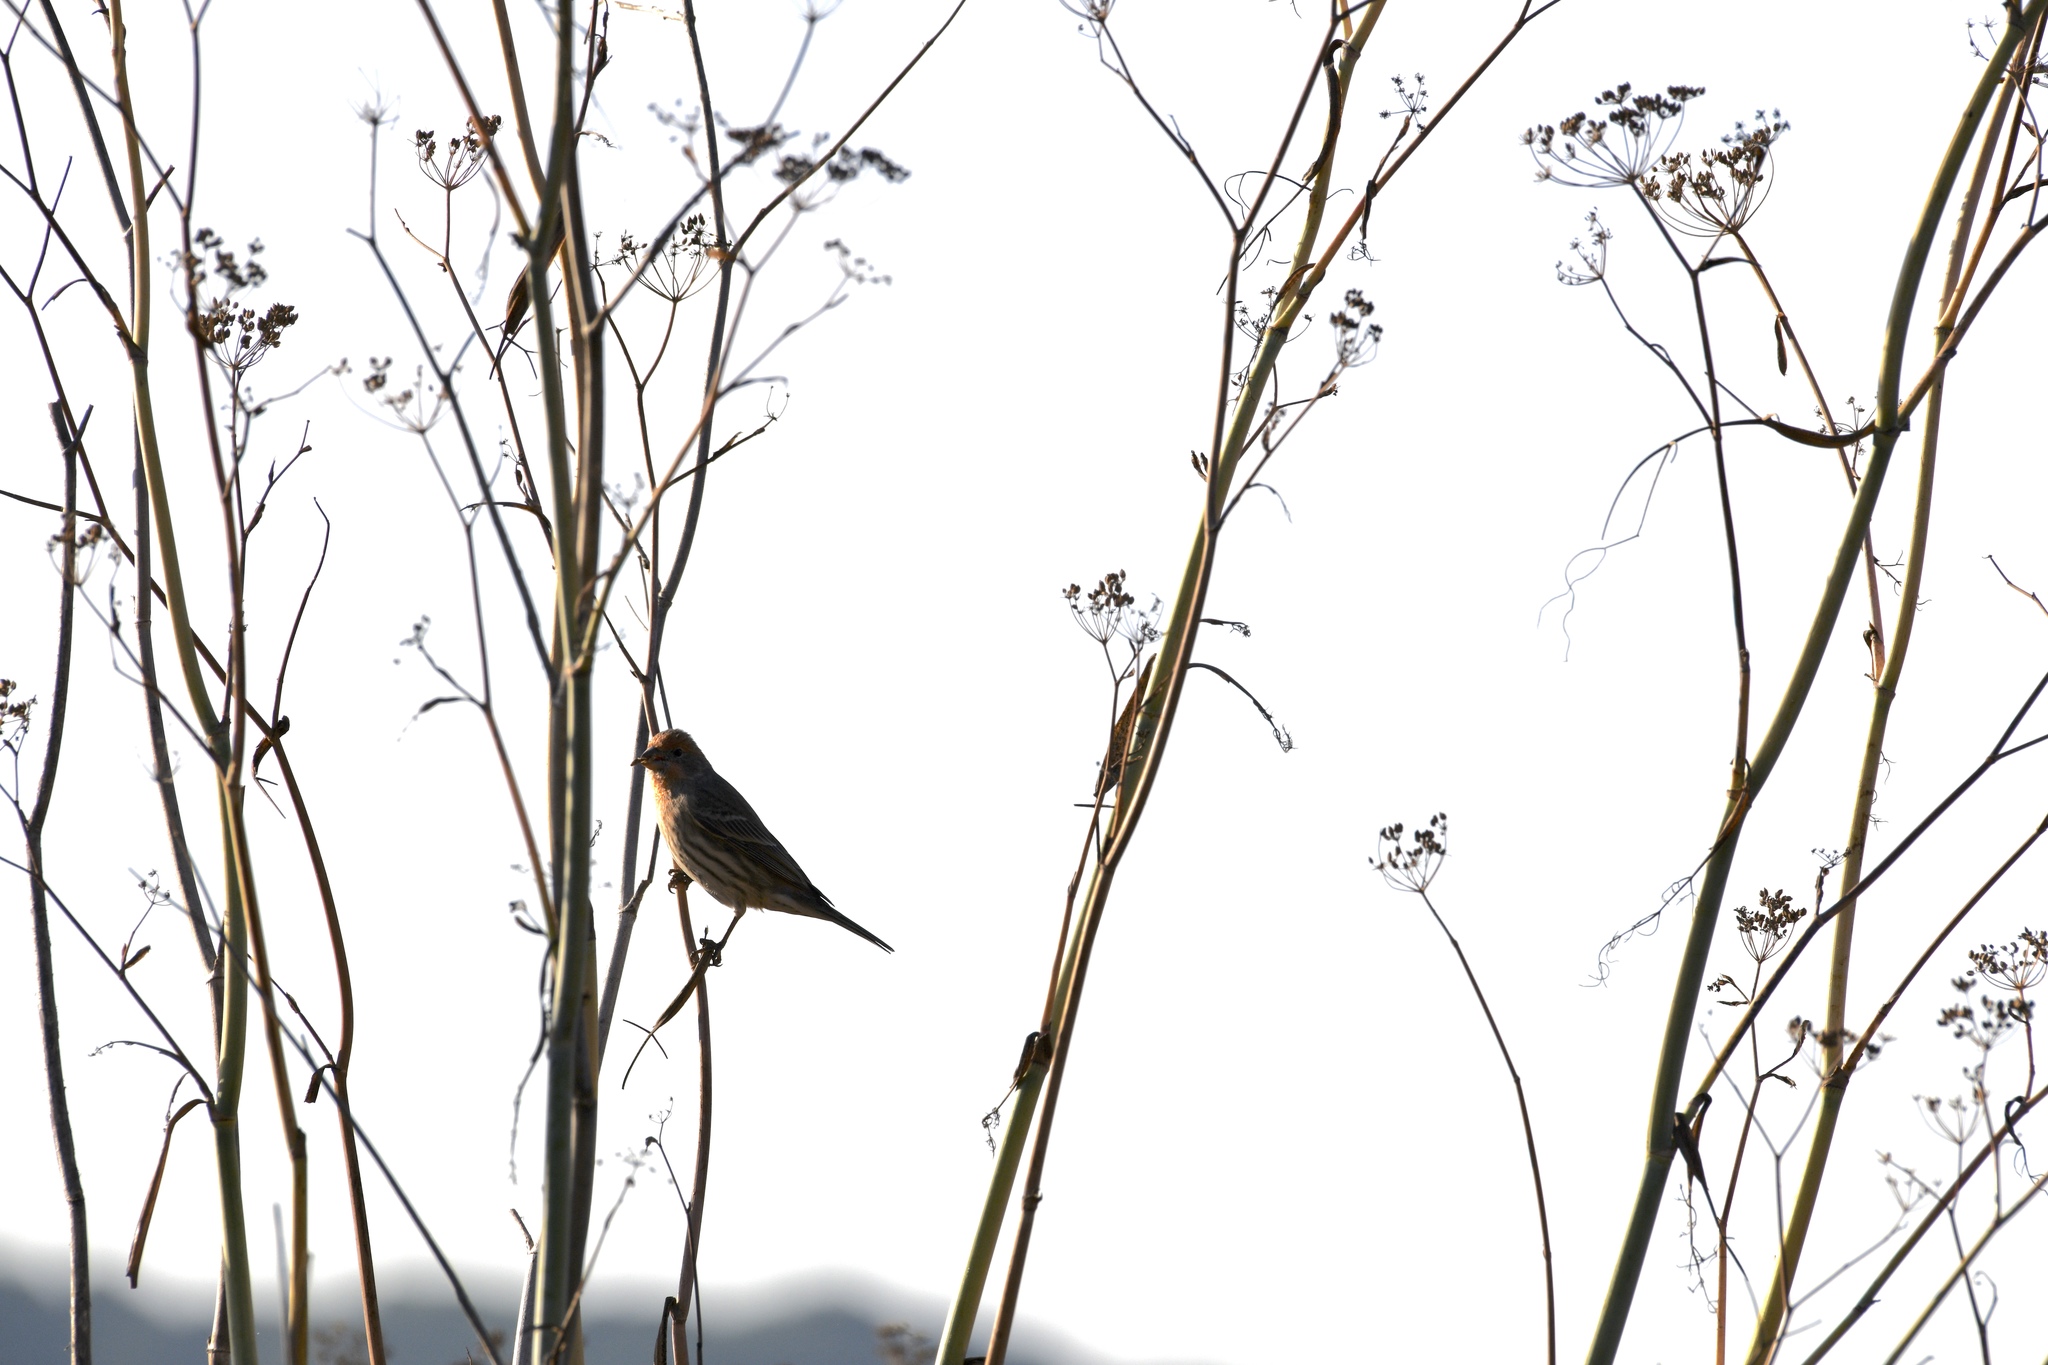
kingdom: Animalia
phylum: Chordata
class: Aves
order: Passeriformes
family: Fringillidae
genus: Haemorhous
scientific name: Haemorhous mexicanus
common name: House finch
